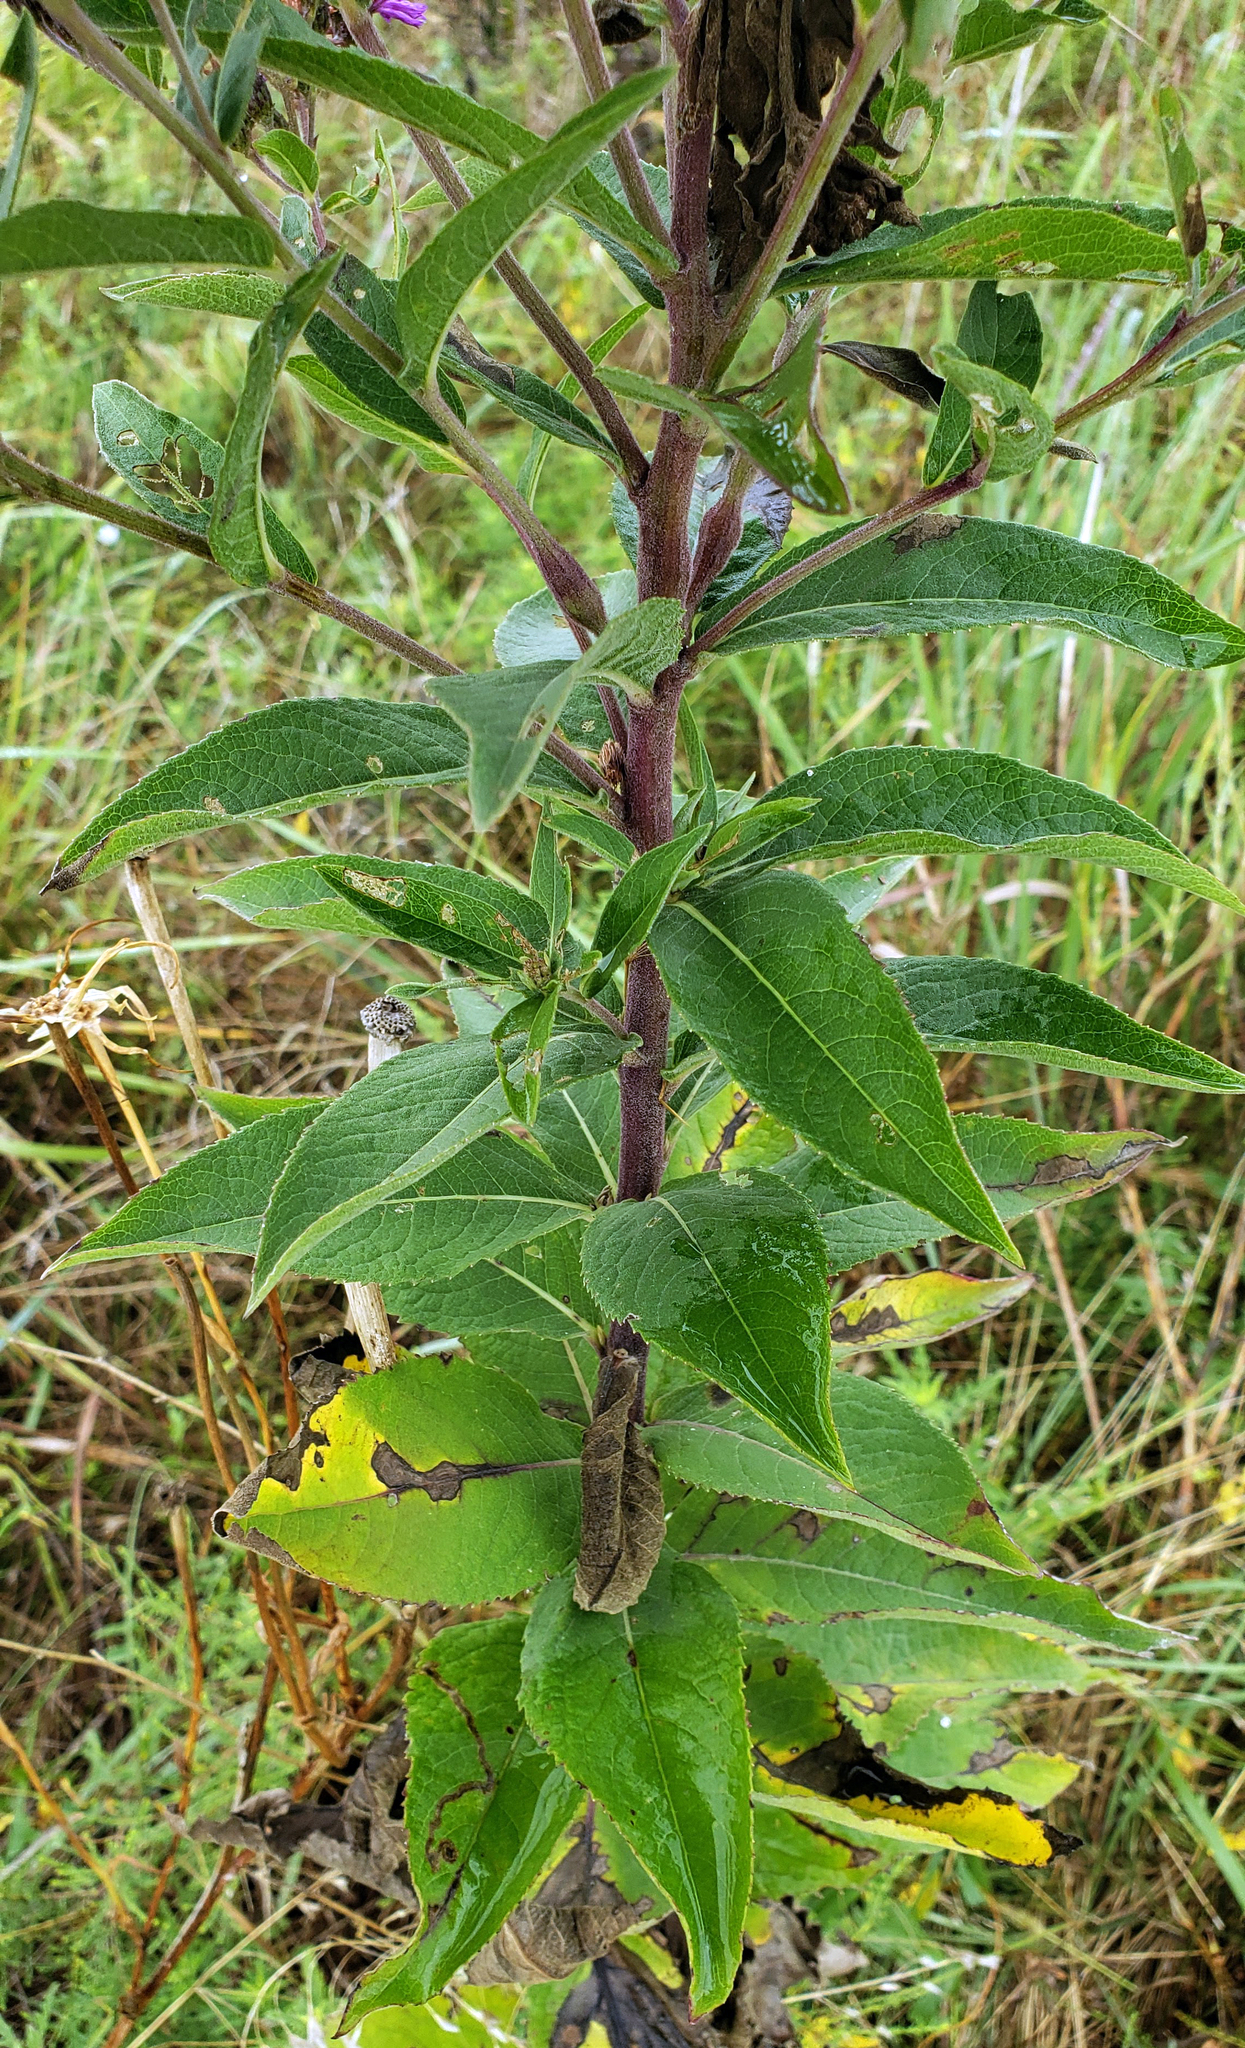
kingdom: Plantae
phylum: Tracheophyta
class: Magnoliopsida
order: Asterales
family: Asteraceae
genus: Vernonia
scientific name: Vernonia baldwinii
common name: Western ironweed
